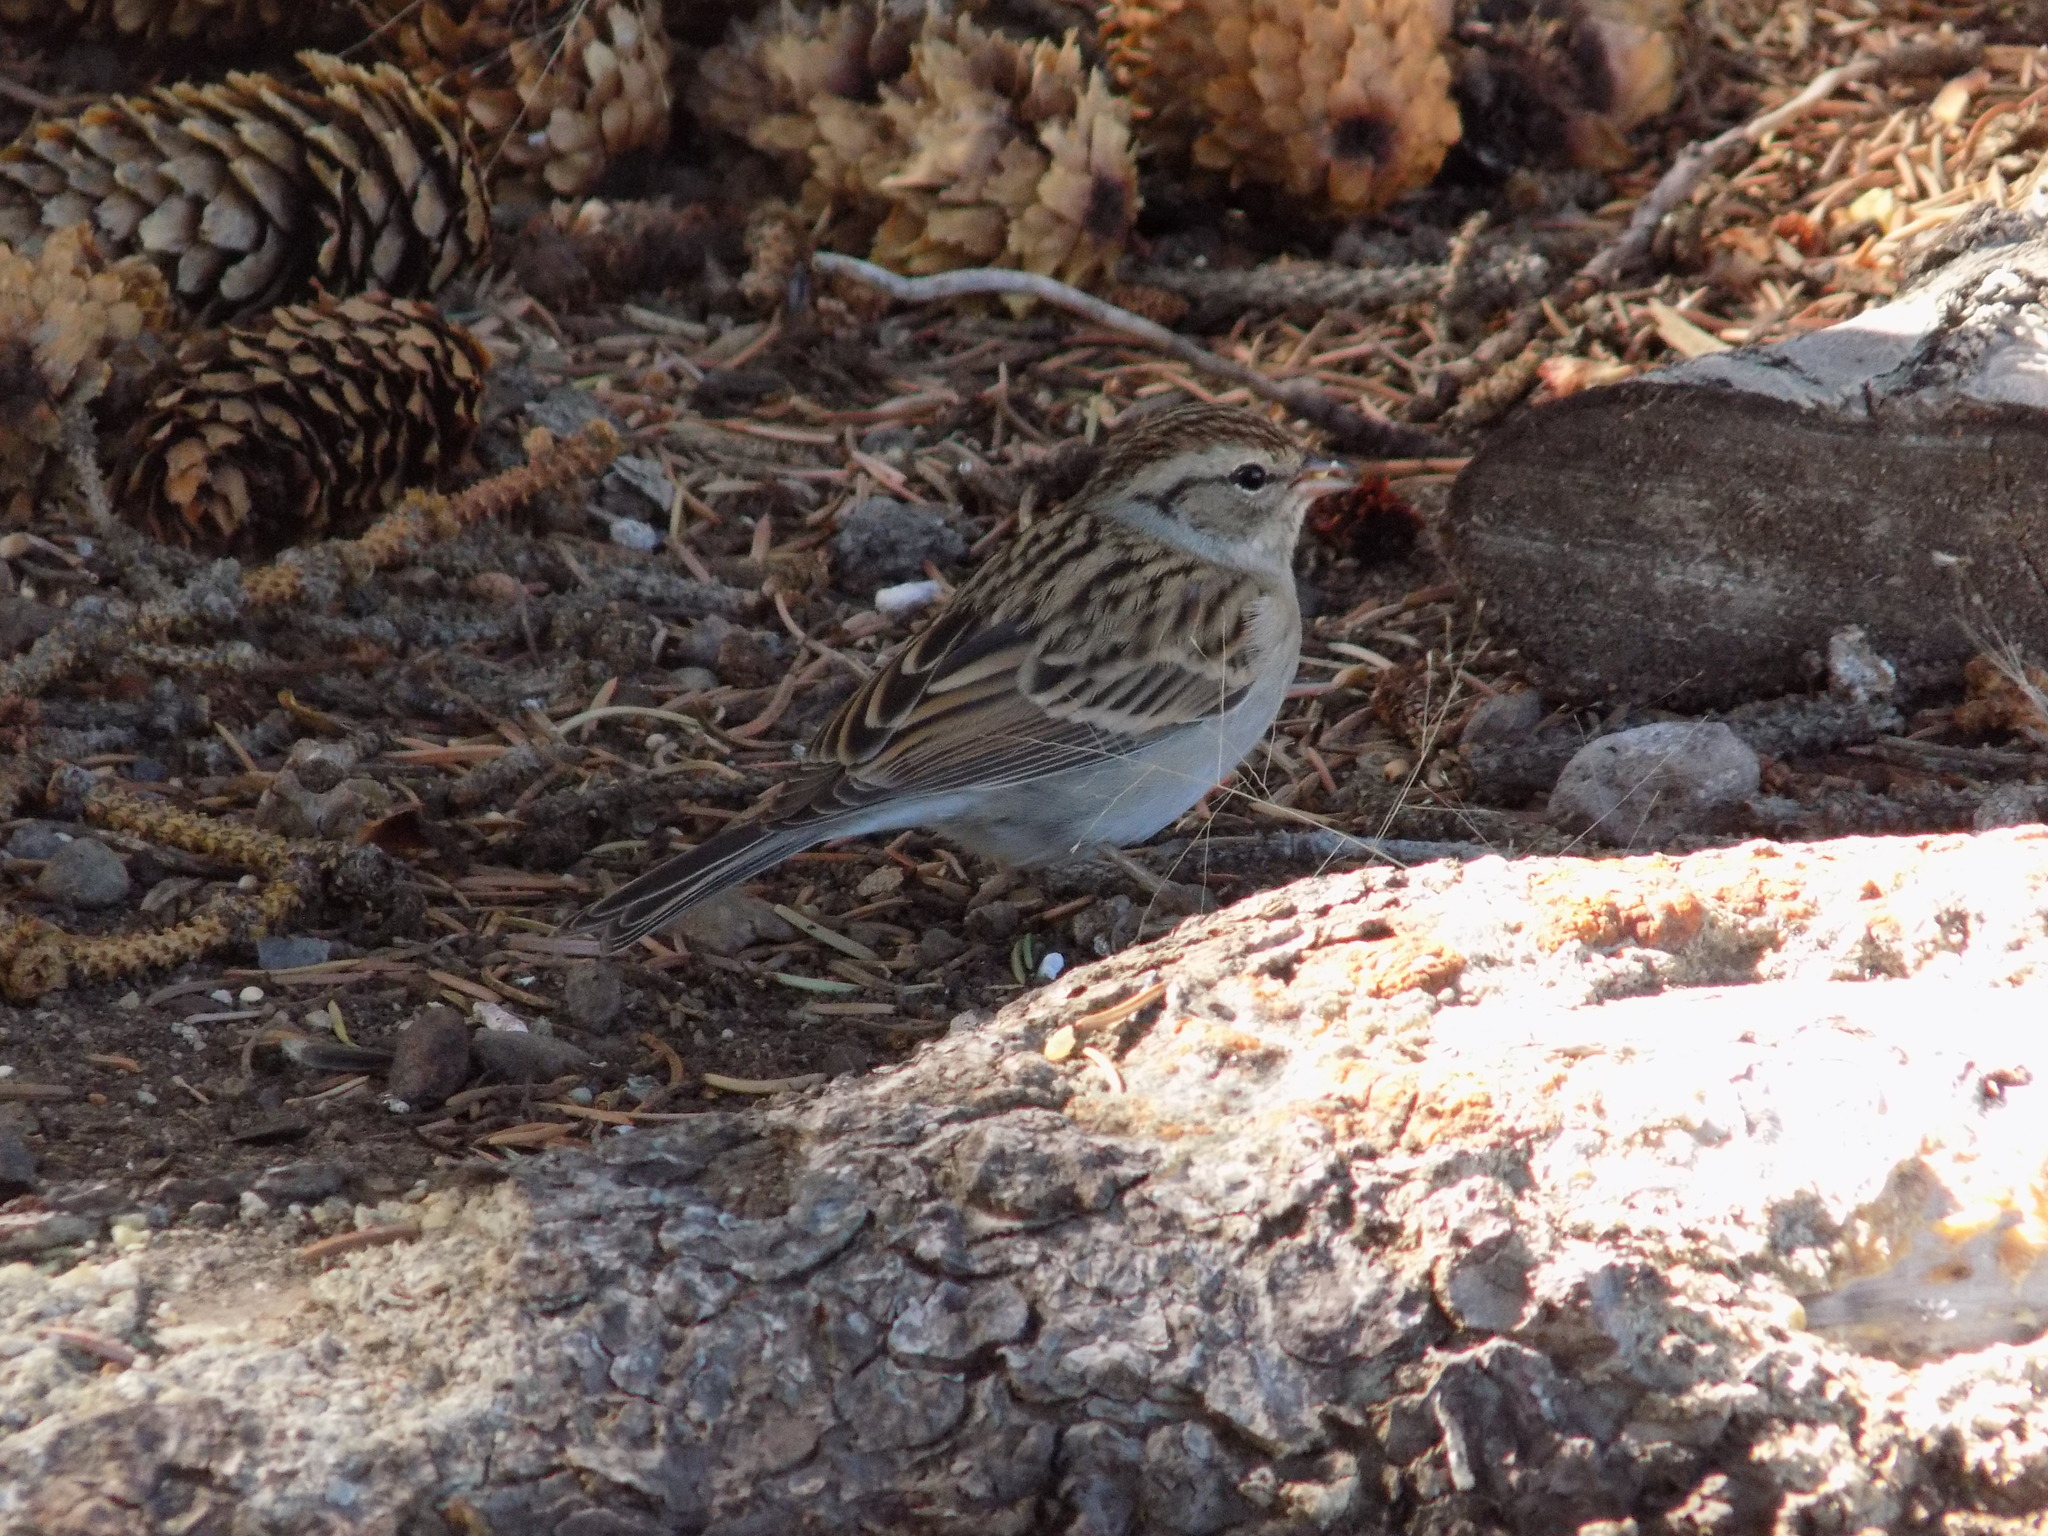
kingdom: Animalia
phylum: Chordata
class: Aves
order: Passeriformes
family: Passerellidae
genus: Spizella
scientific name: Spizella passerina
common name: Chipping sparrow
